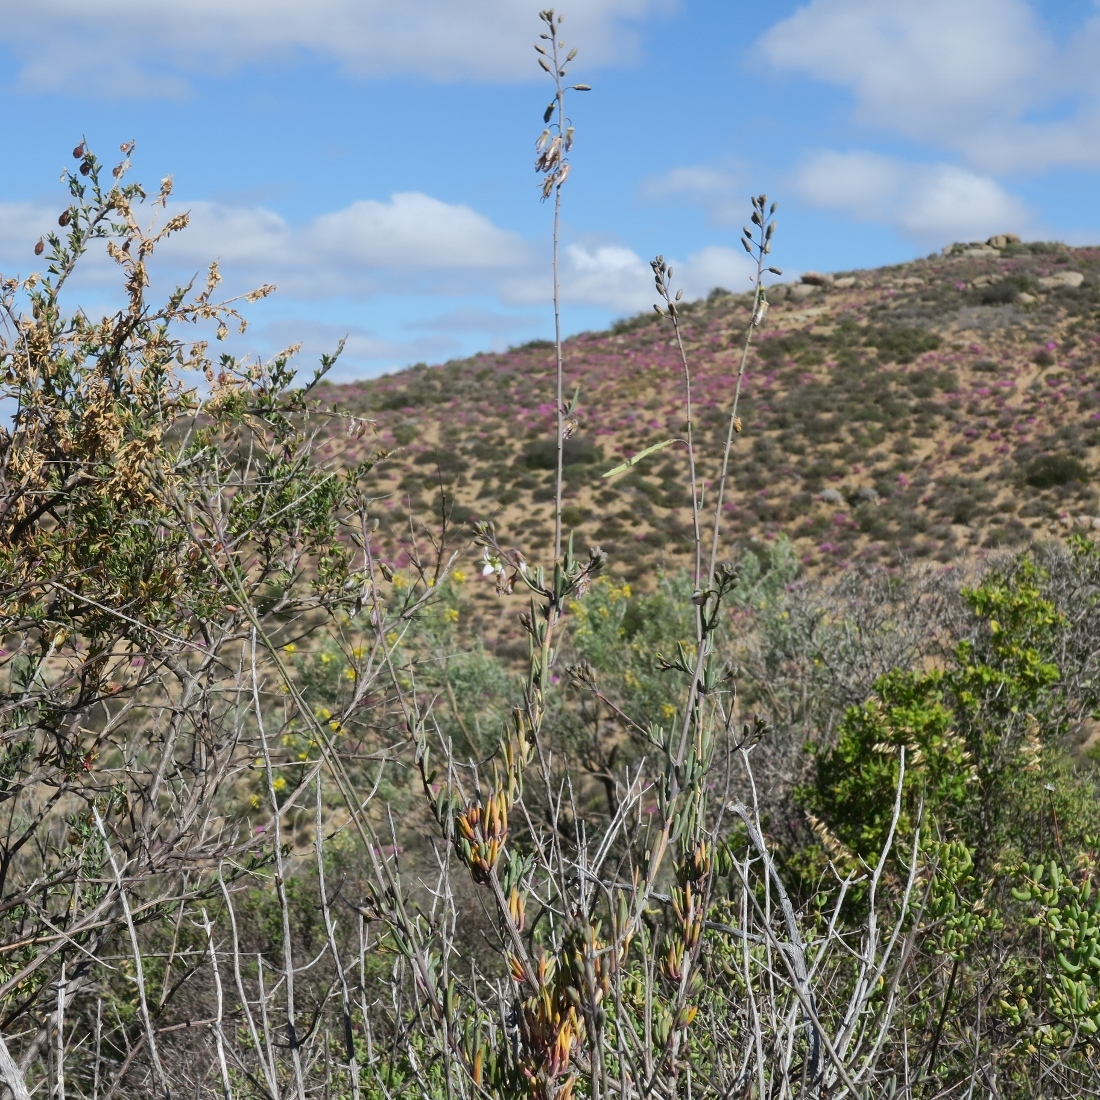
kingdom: Plantae
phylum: Tracheophyta
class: Magnoliopsida
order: Brassicales
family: Brassicaceae
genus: Heliophila
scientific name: Heliophila cornuta
